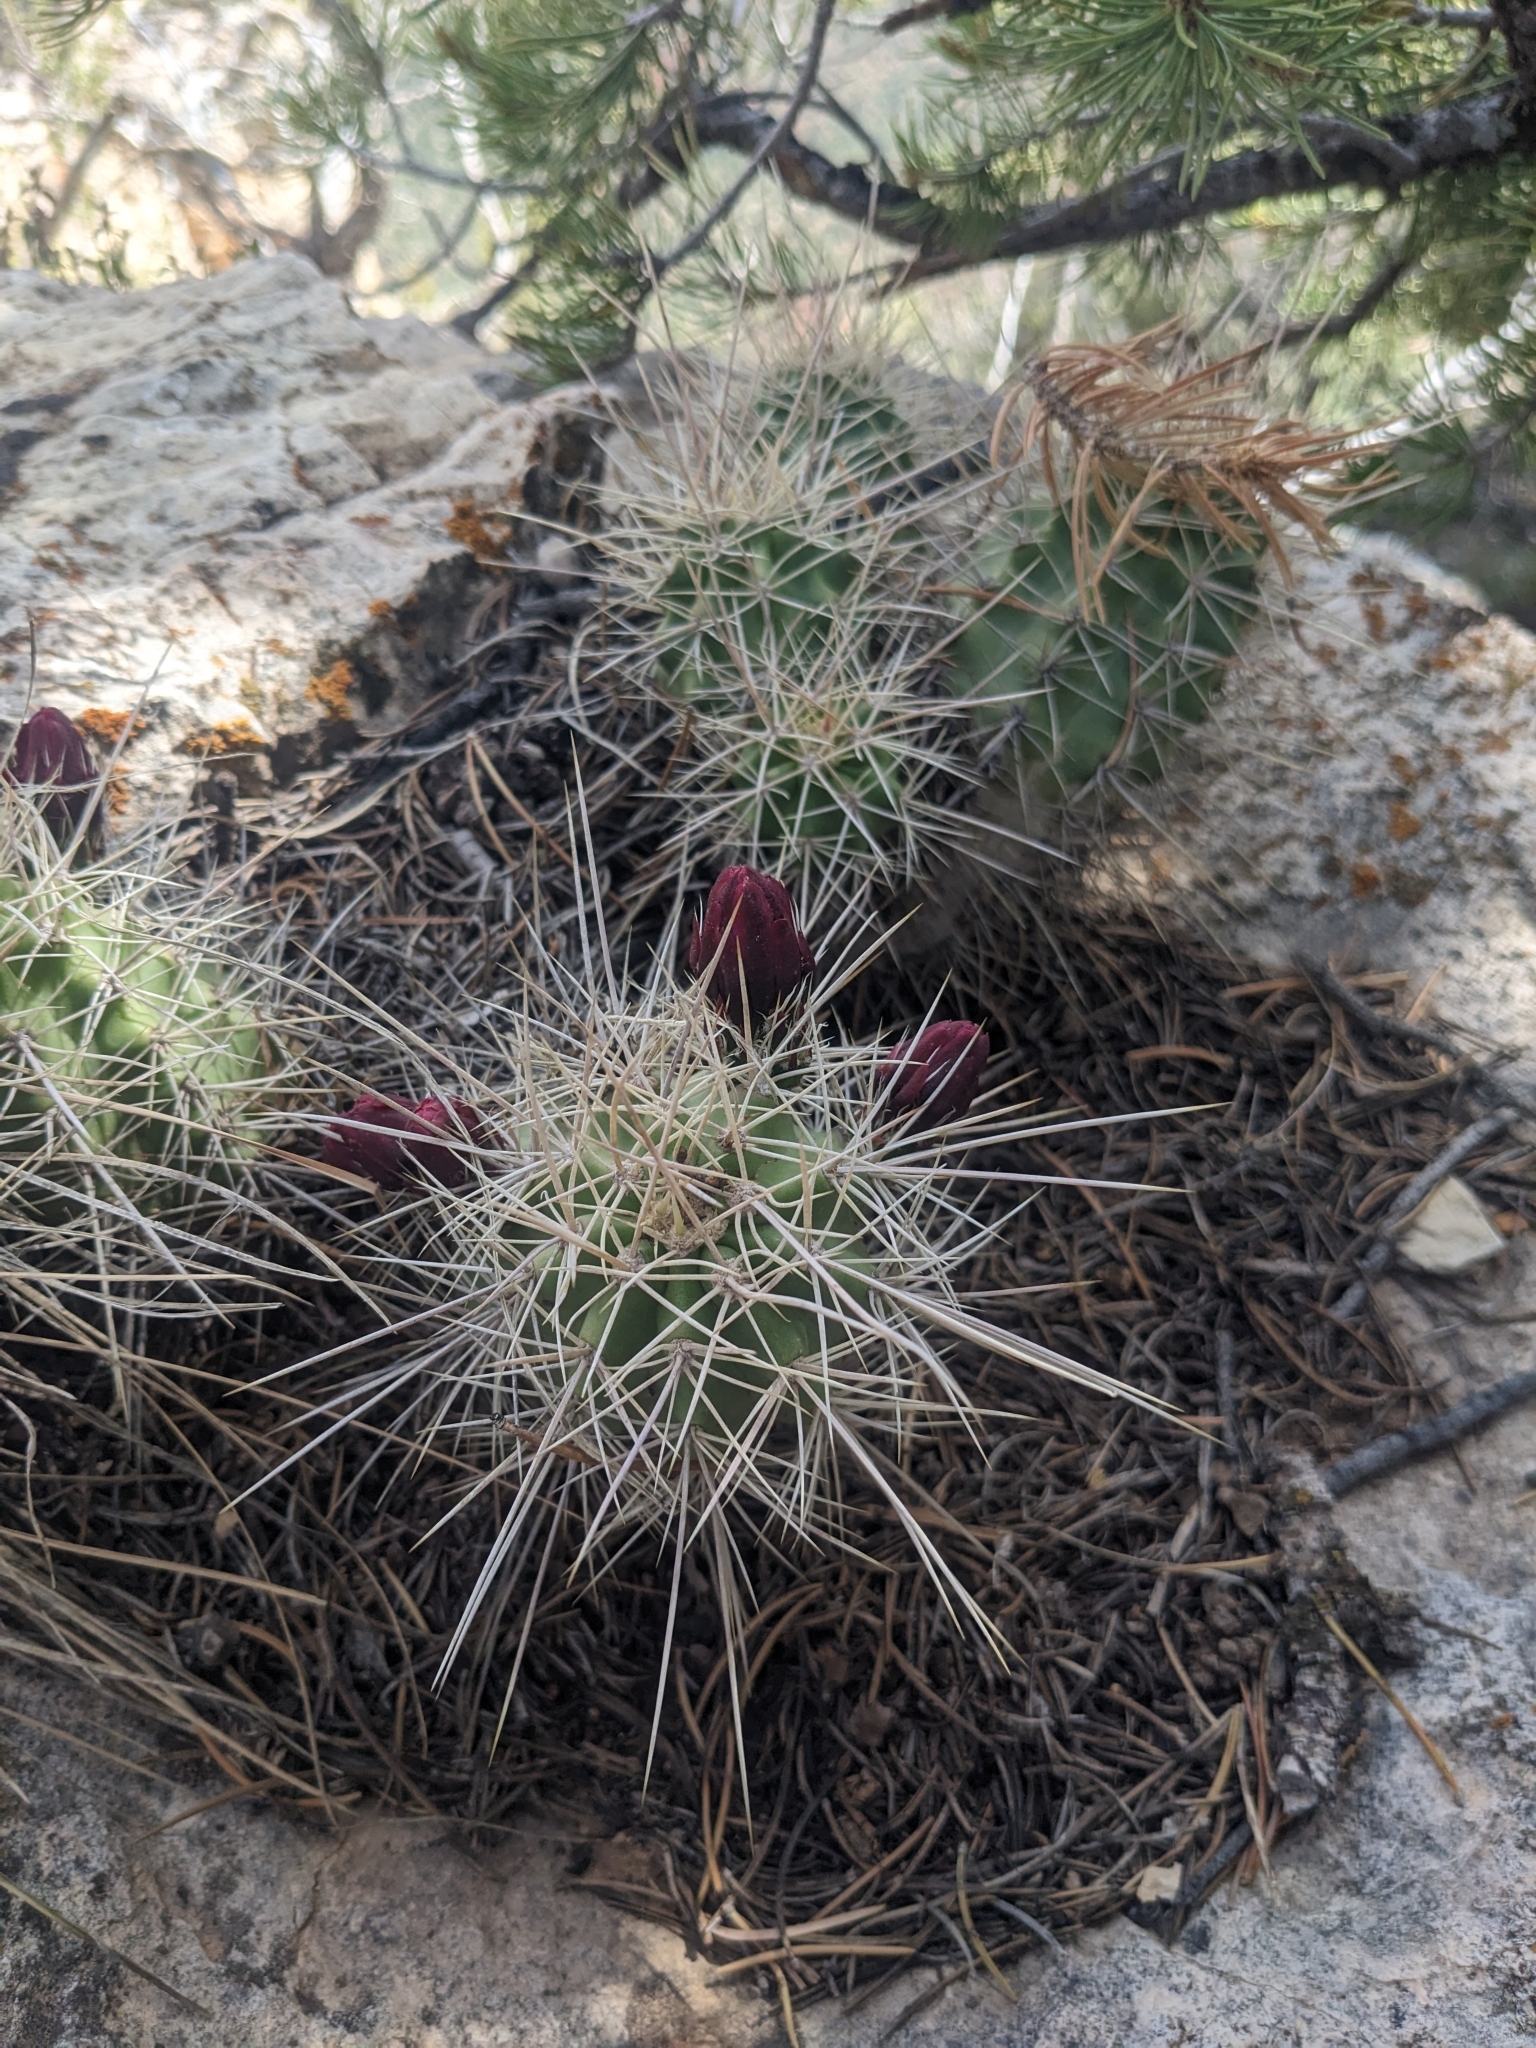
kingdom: Plantae
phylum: Tracheophyta
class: Magnoliopsida
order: Caryophyllales
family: Cactaceae
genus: Echinocereus
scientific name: Echinocereus triglochidiatus
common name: Claretcup hedgehog
